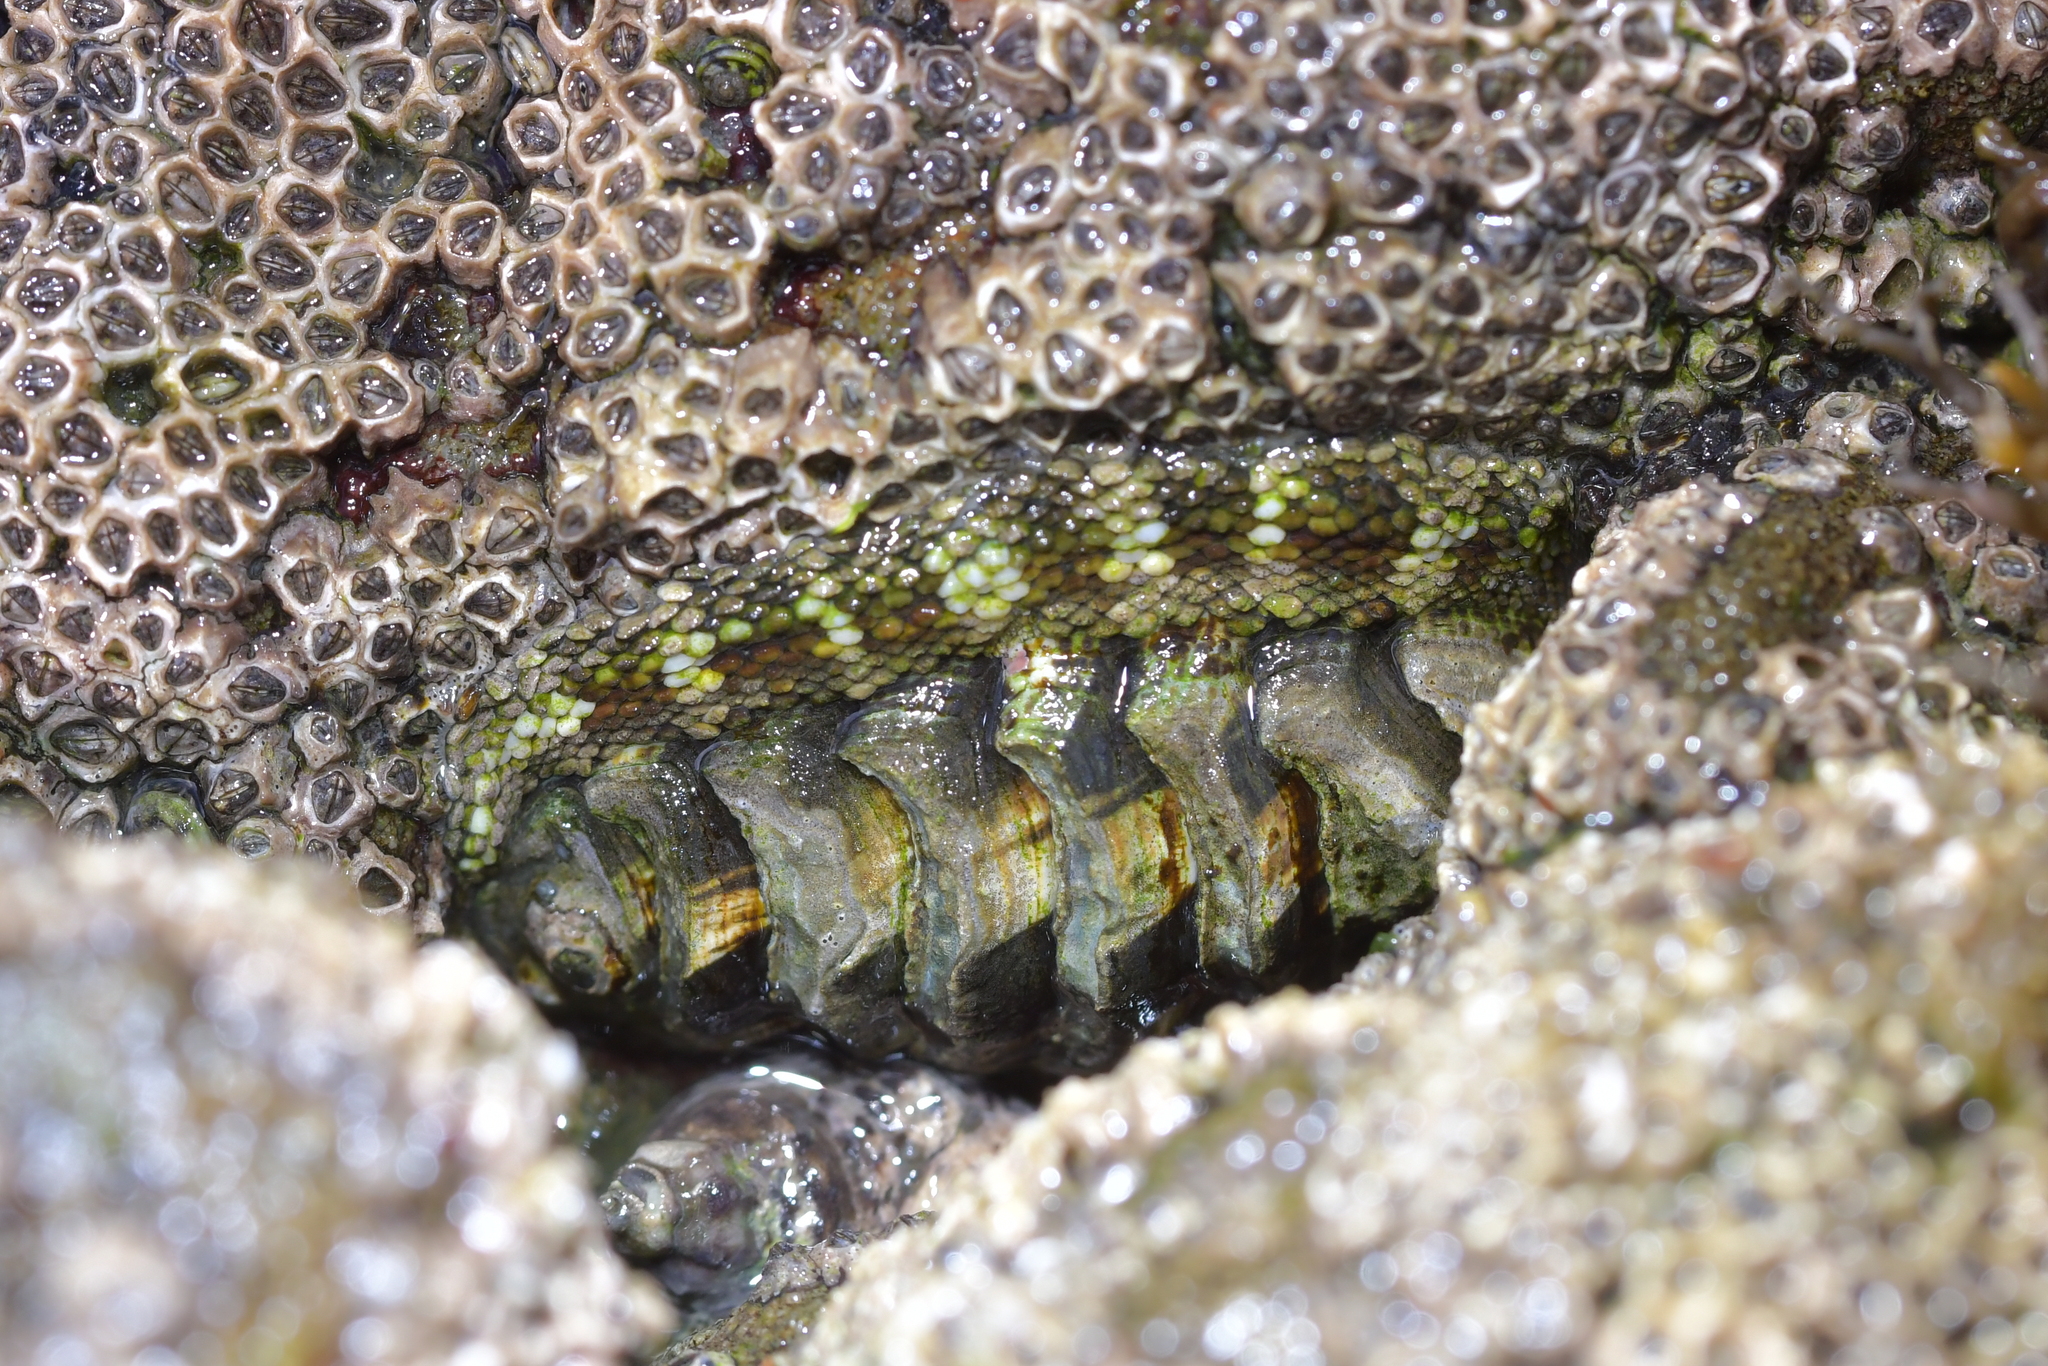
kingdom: Animalia
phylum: Mollusca
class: Polyplacophora
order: Chitonida
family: Chitonidae
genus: Sypharochiton
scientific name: Sypharochiton pelliserpentis
